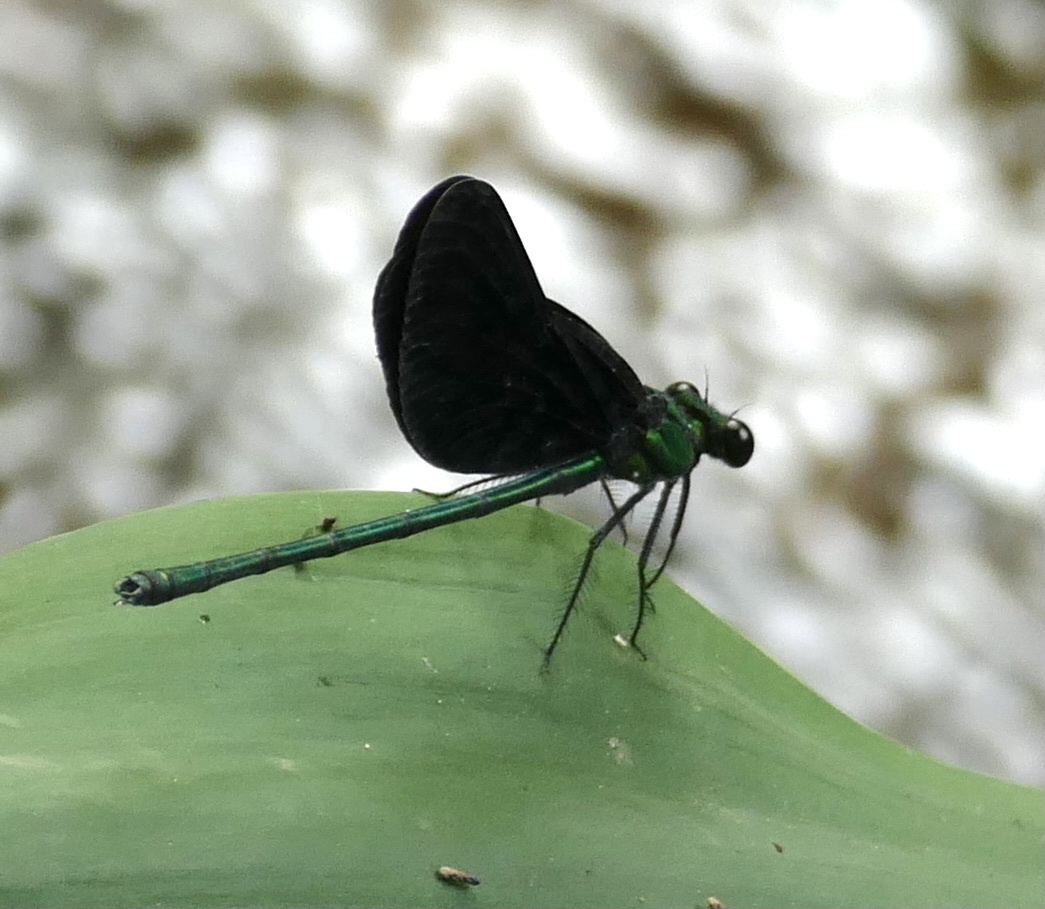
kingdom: Animalia
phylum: Arthropoda
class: Insecta
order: Odonata
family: Calopterygidae
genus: Sapho
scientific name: Sapho ciliata
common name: Western bluewing
